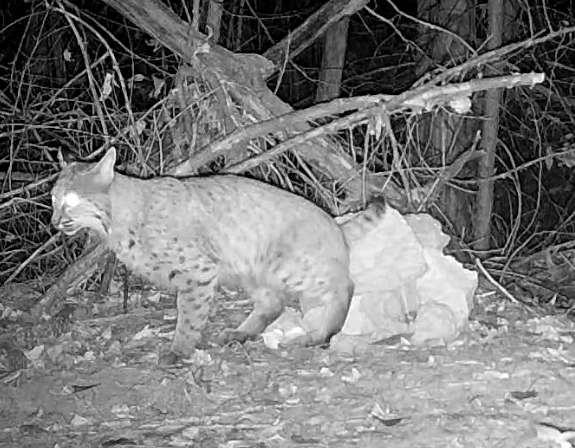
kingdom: Animalia
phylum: Chordata
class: Mammalia
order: Carnivora
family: Felidae
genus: Lynx
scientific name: Lynx rufus
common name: Bobcat
